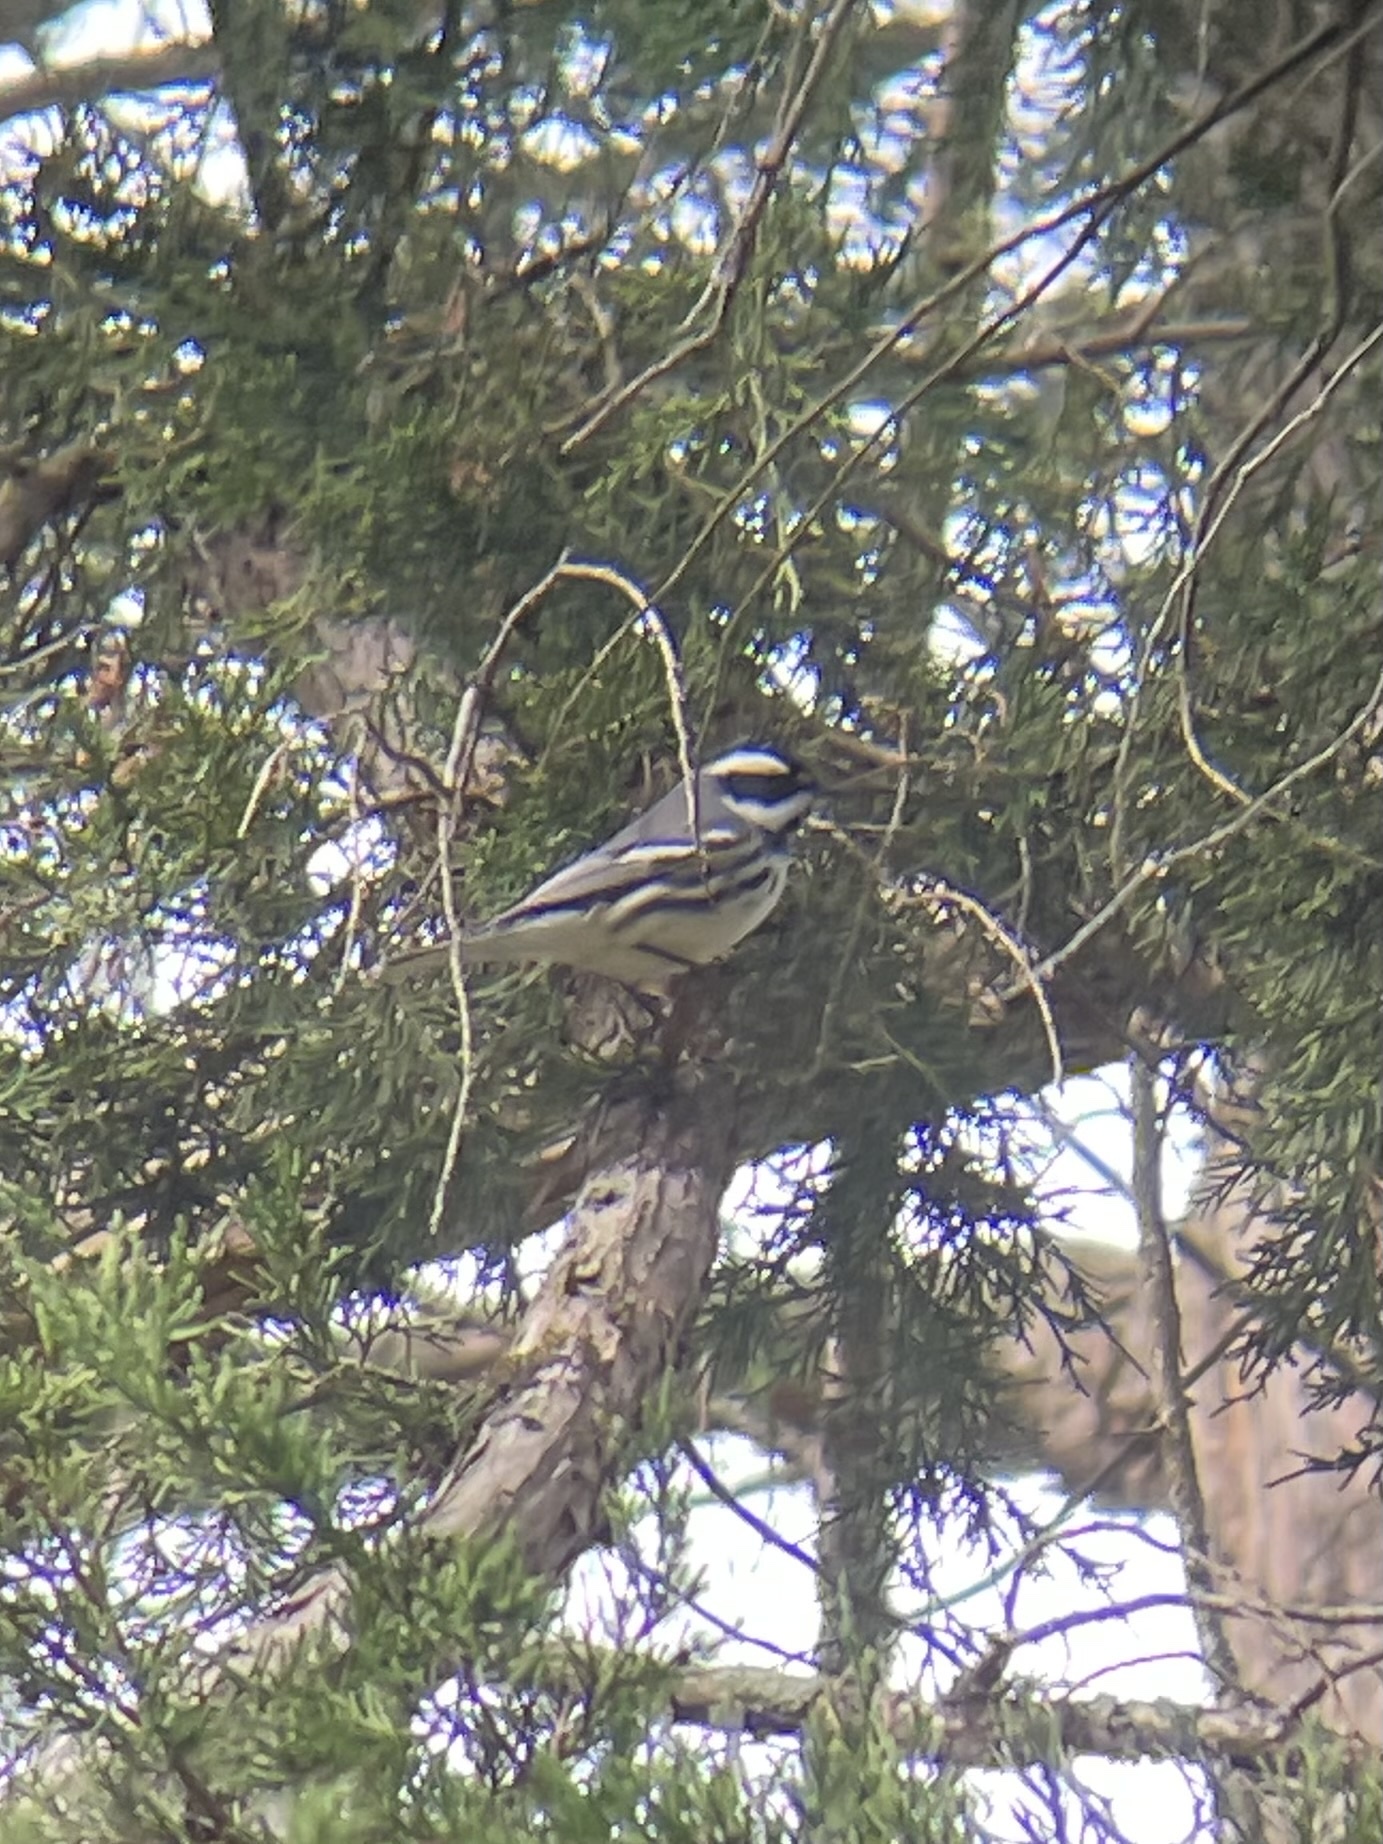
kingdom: Animalia
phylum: Chordata
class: Aves
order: Passeriformes
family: Parulidae
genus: Setophaga
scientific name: Setophaga nigrescens
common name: Black-throated gray warbler
